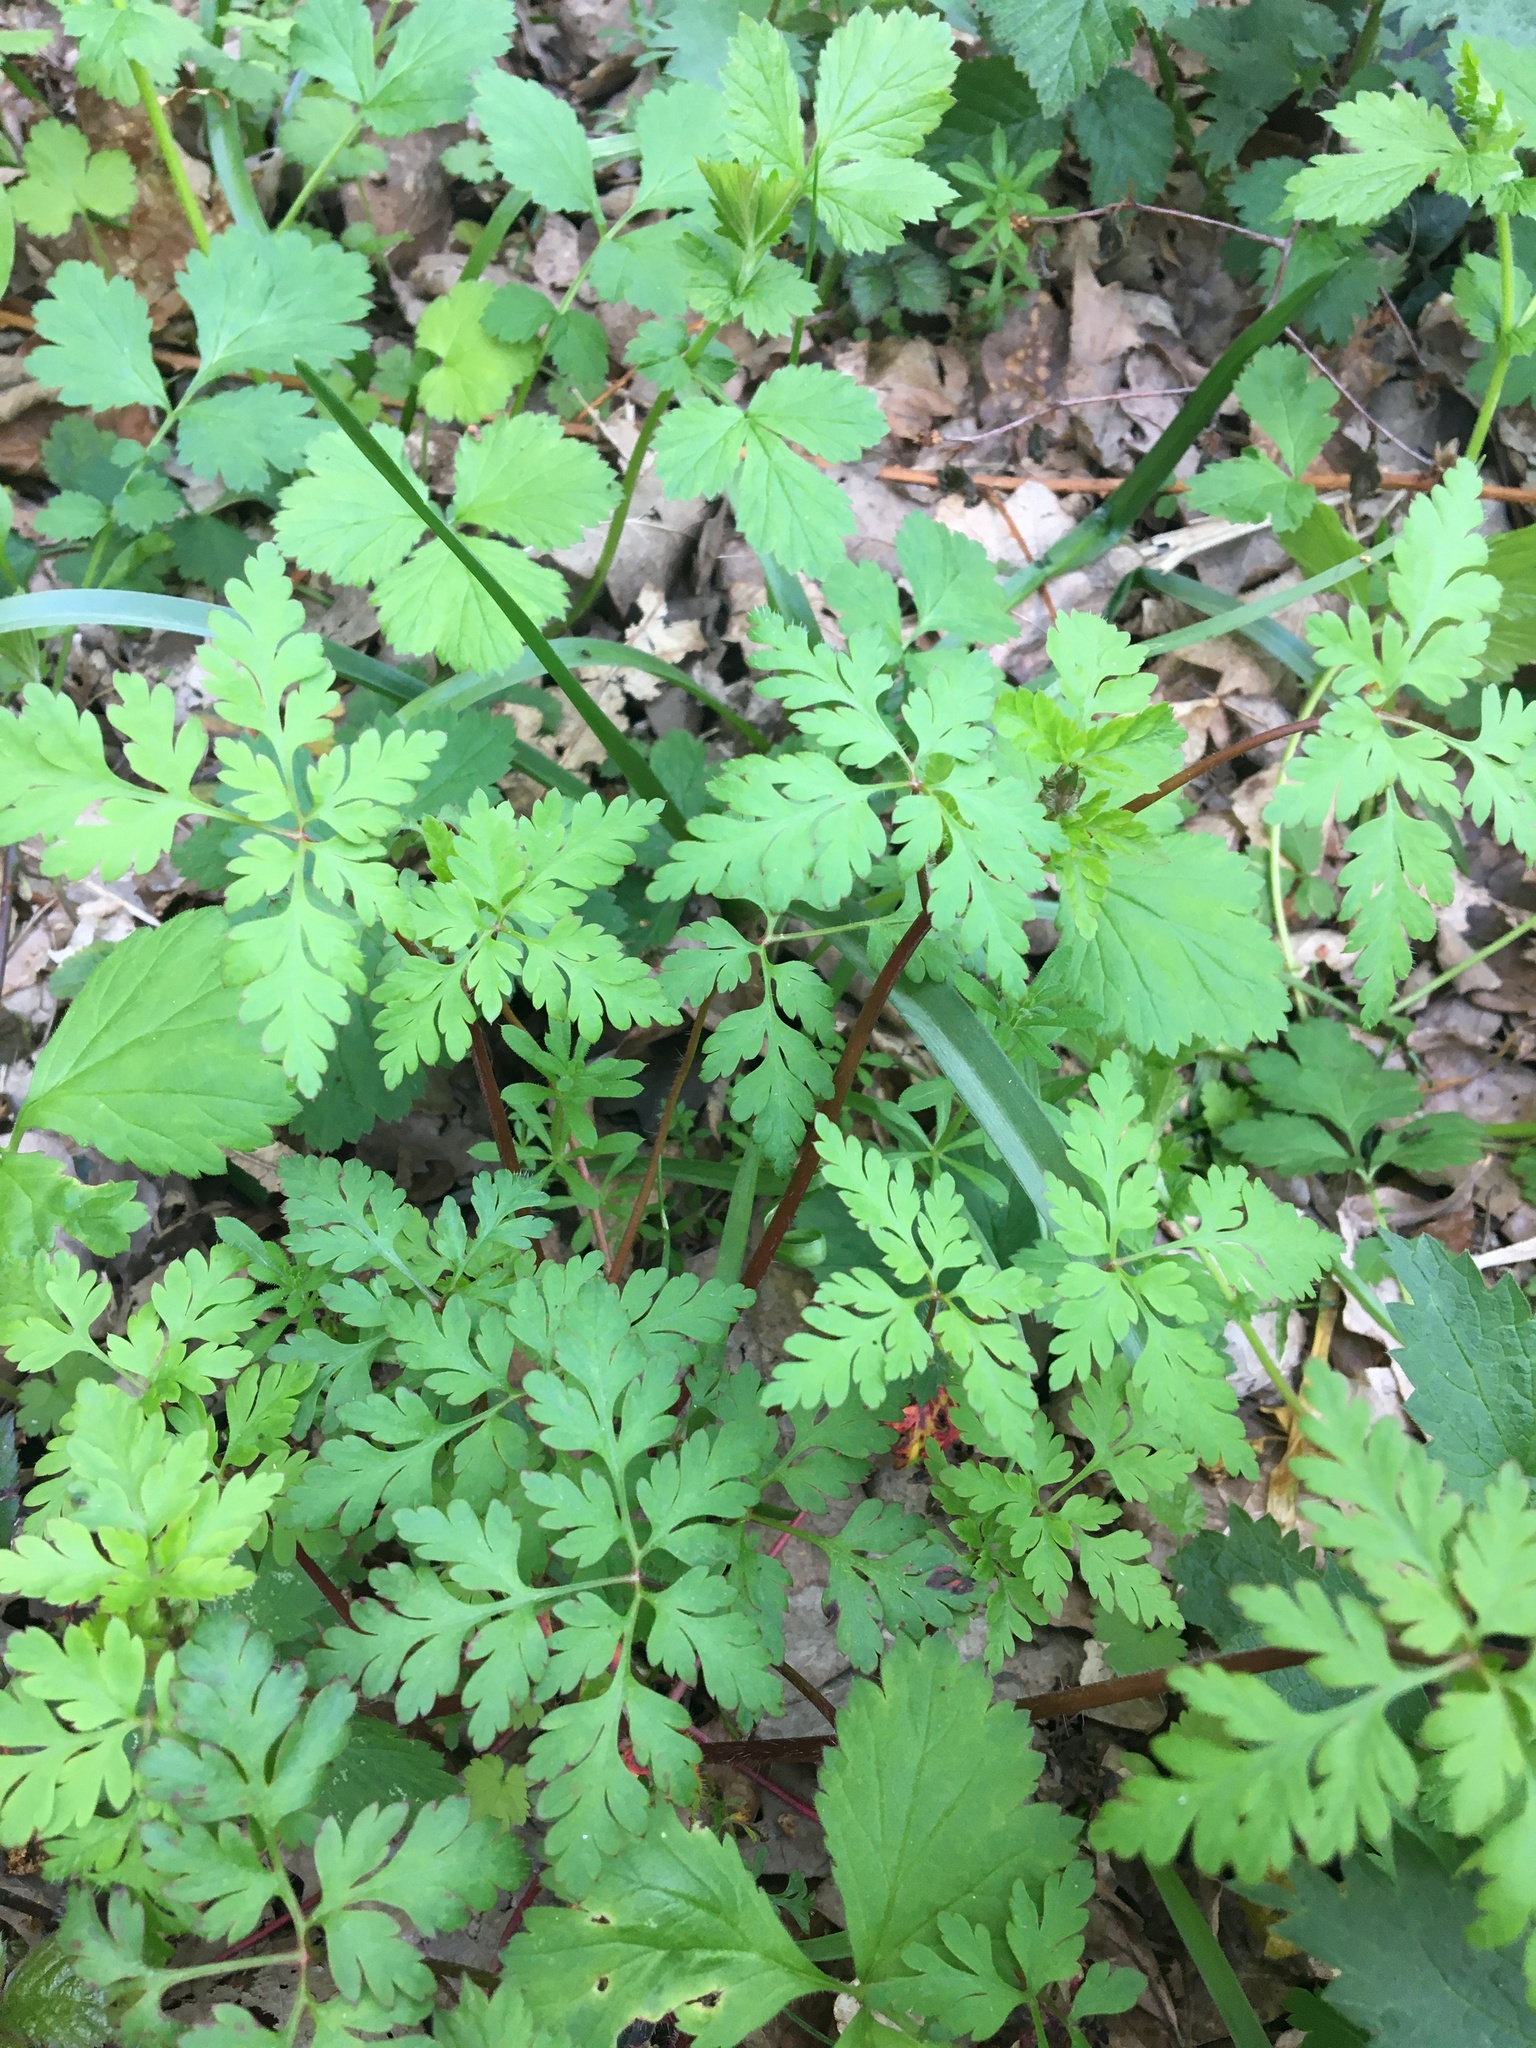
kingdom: Plantae
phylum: Tracheophyta
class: Magnoliopsida
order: Geraniales
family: Geraniaceae
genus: Geranium
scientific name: Geranium robertianum
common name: Herb-robert
